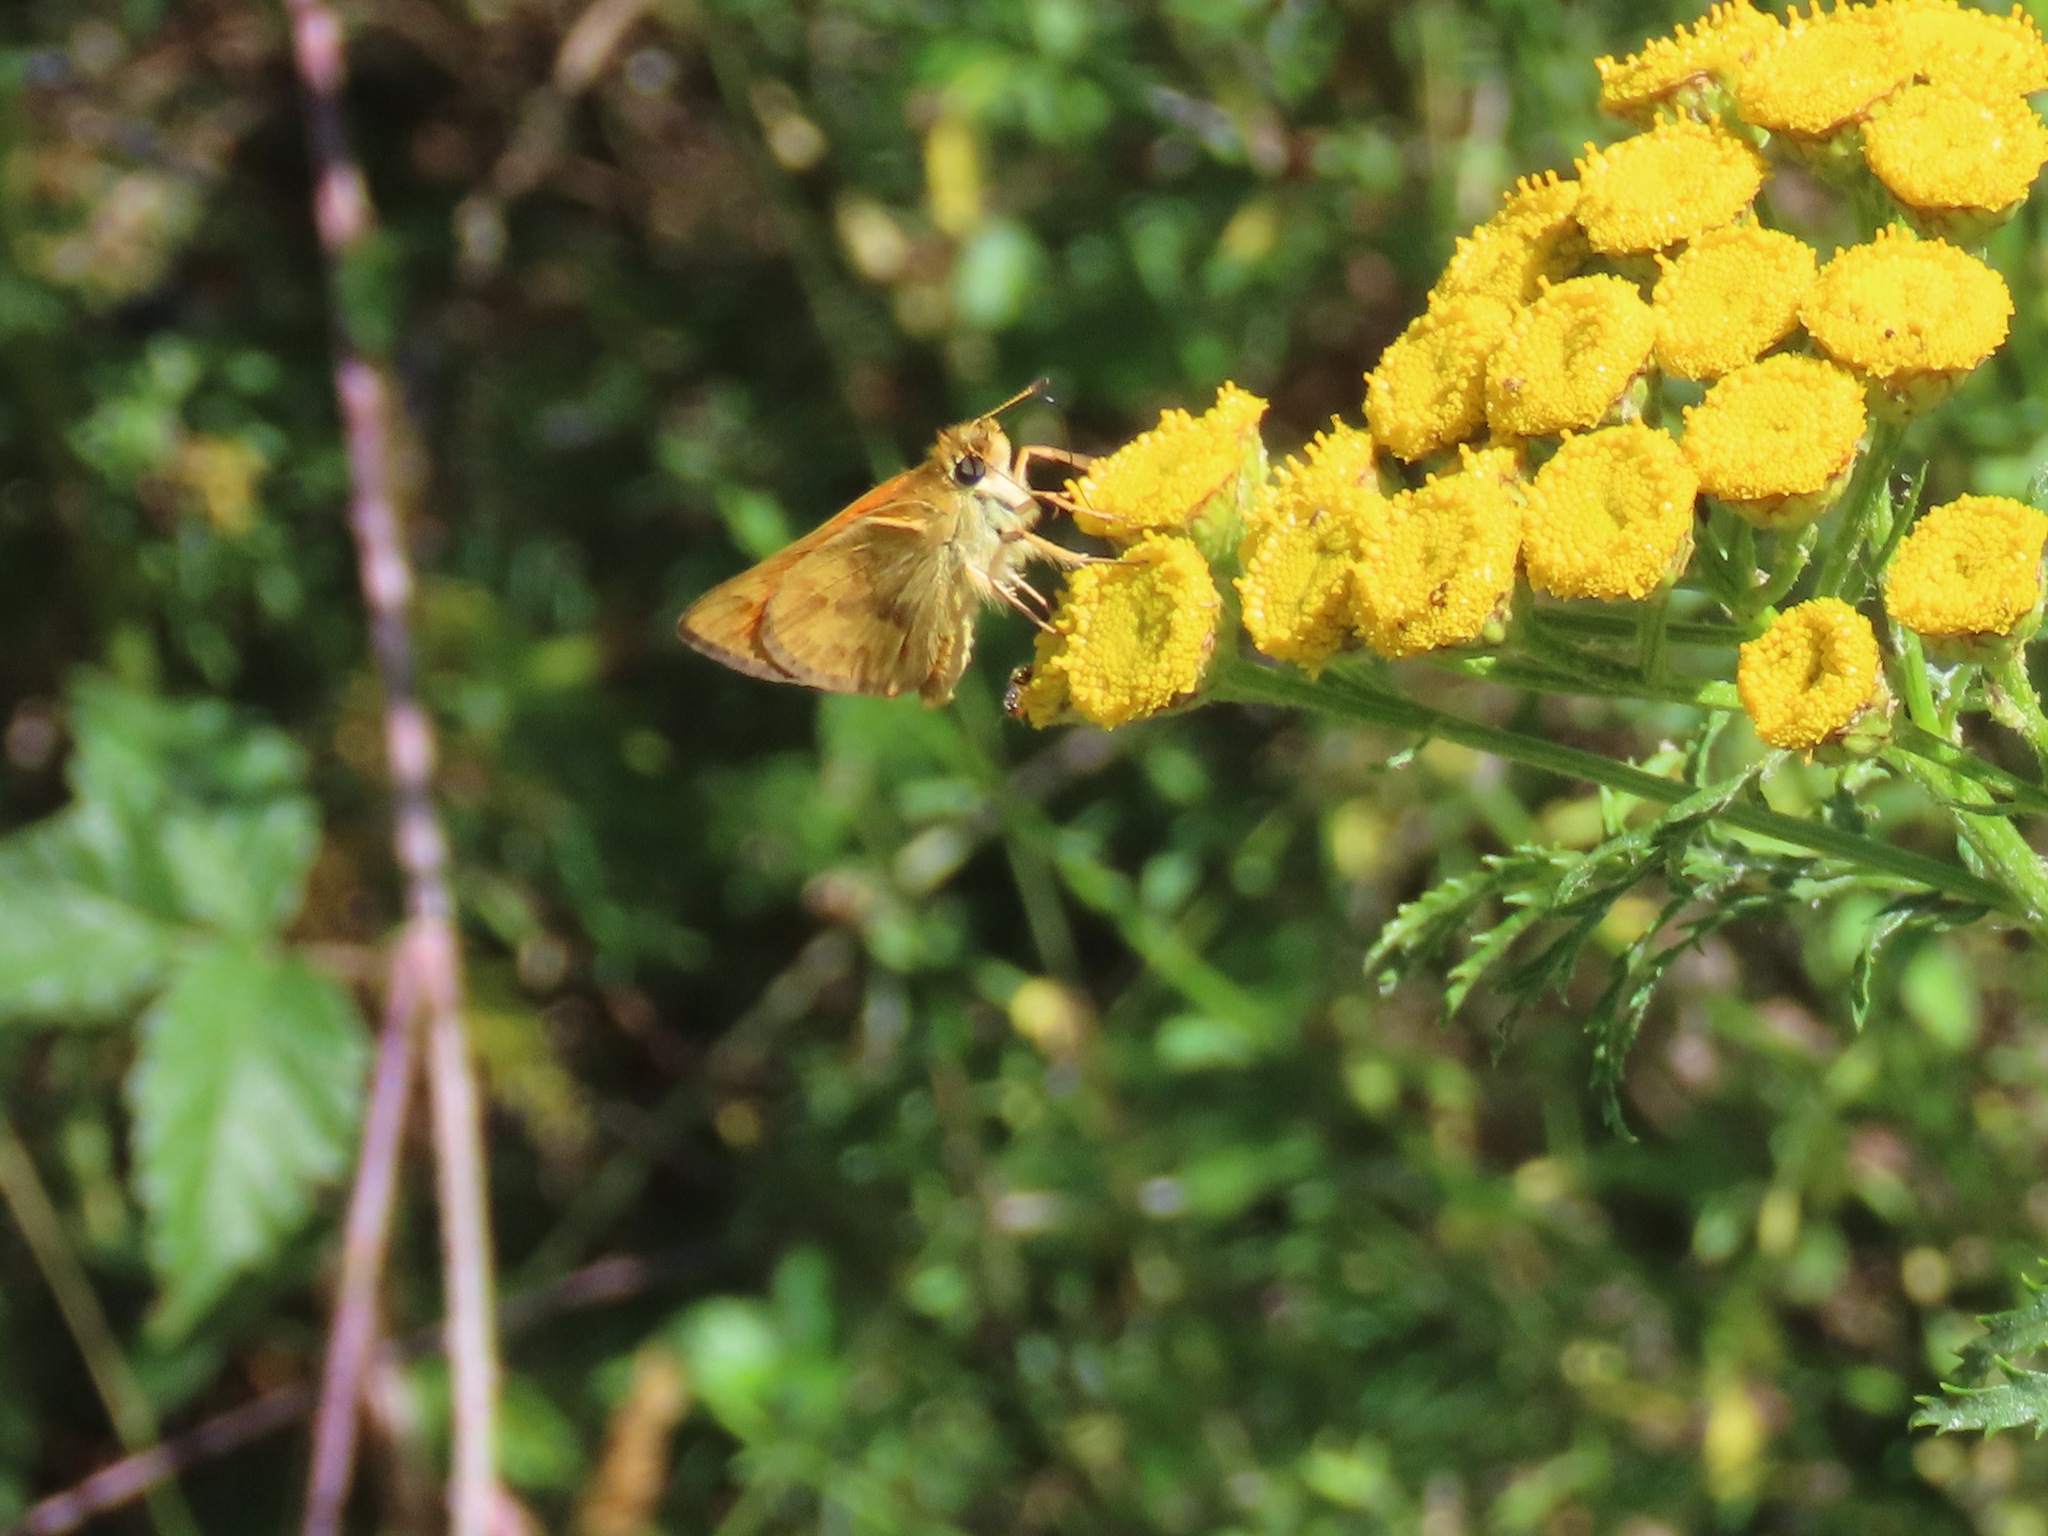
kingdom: Animalia
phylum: Arthropoda
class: Insecta
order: Lepidoptera
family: Hesperiidae
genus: Ochlodes
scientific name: Ochlodes sylvanoides
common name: Woodland skipper
